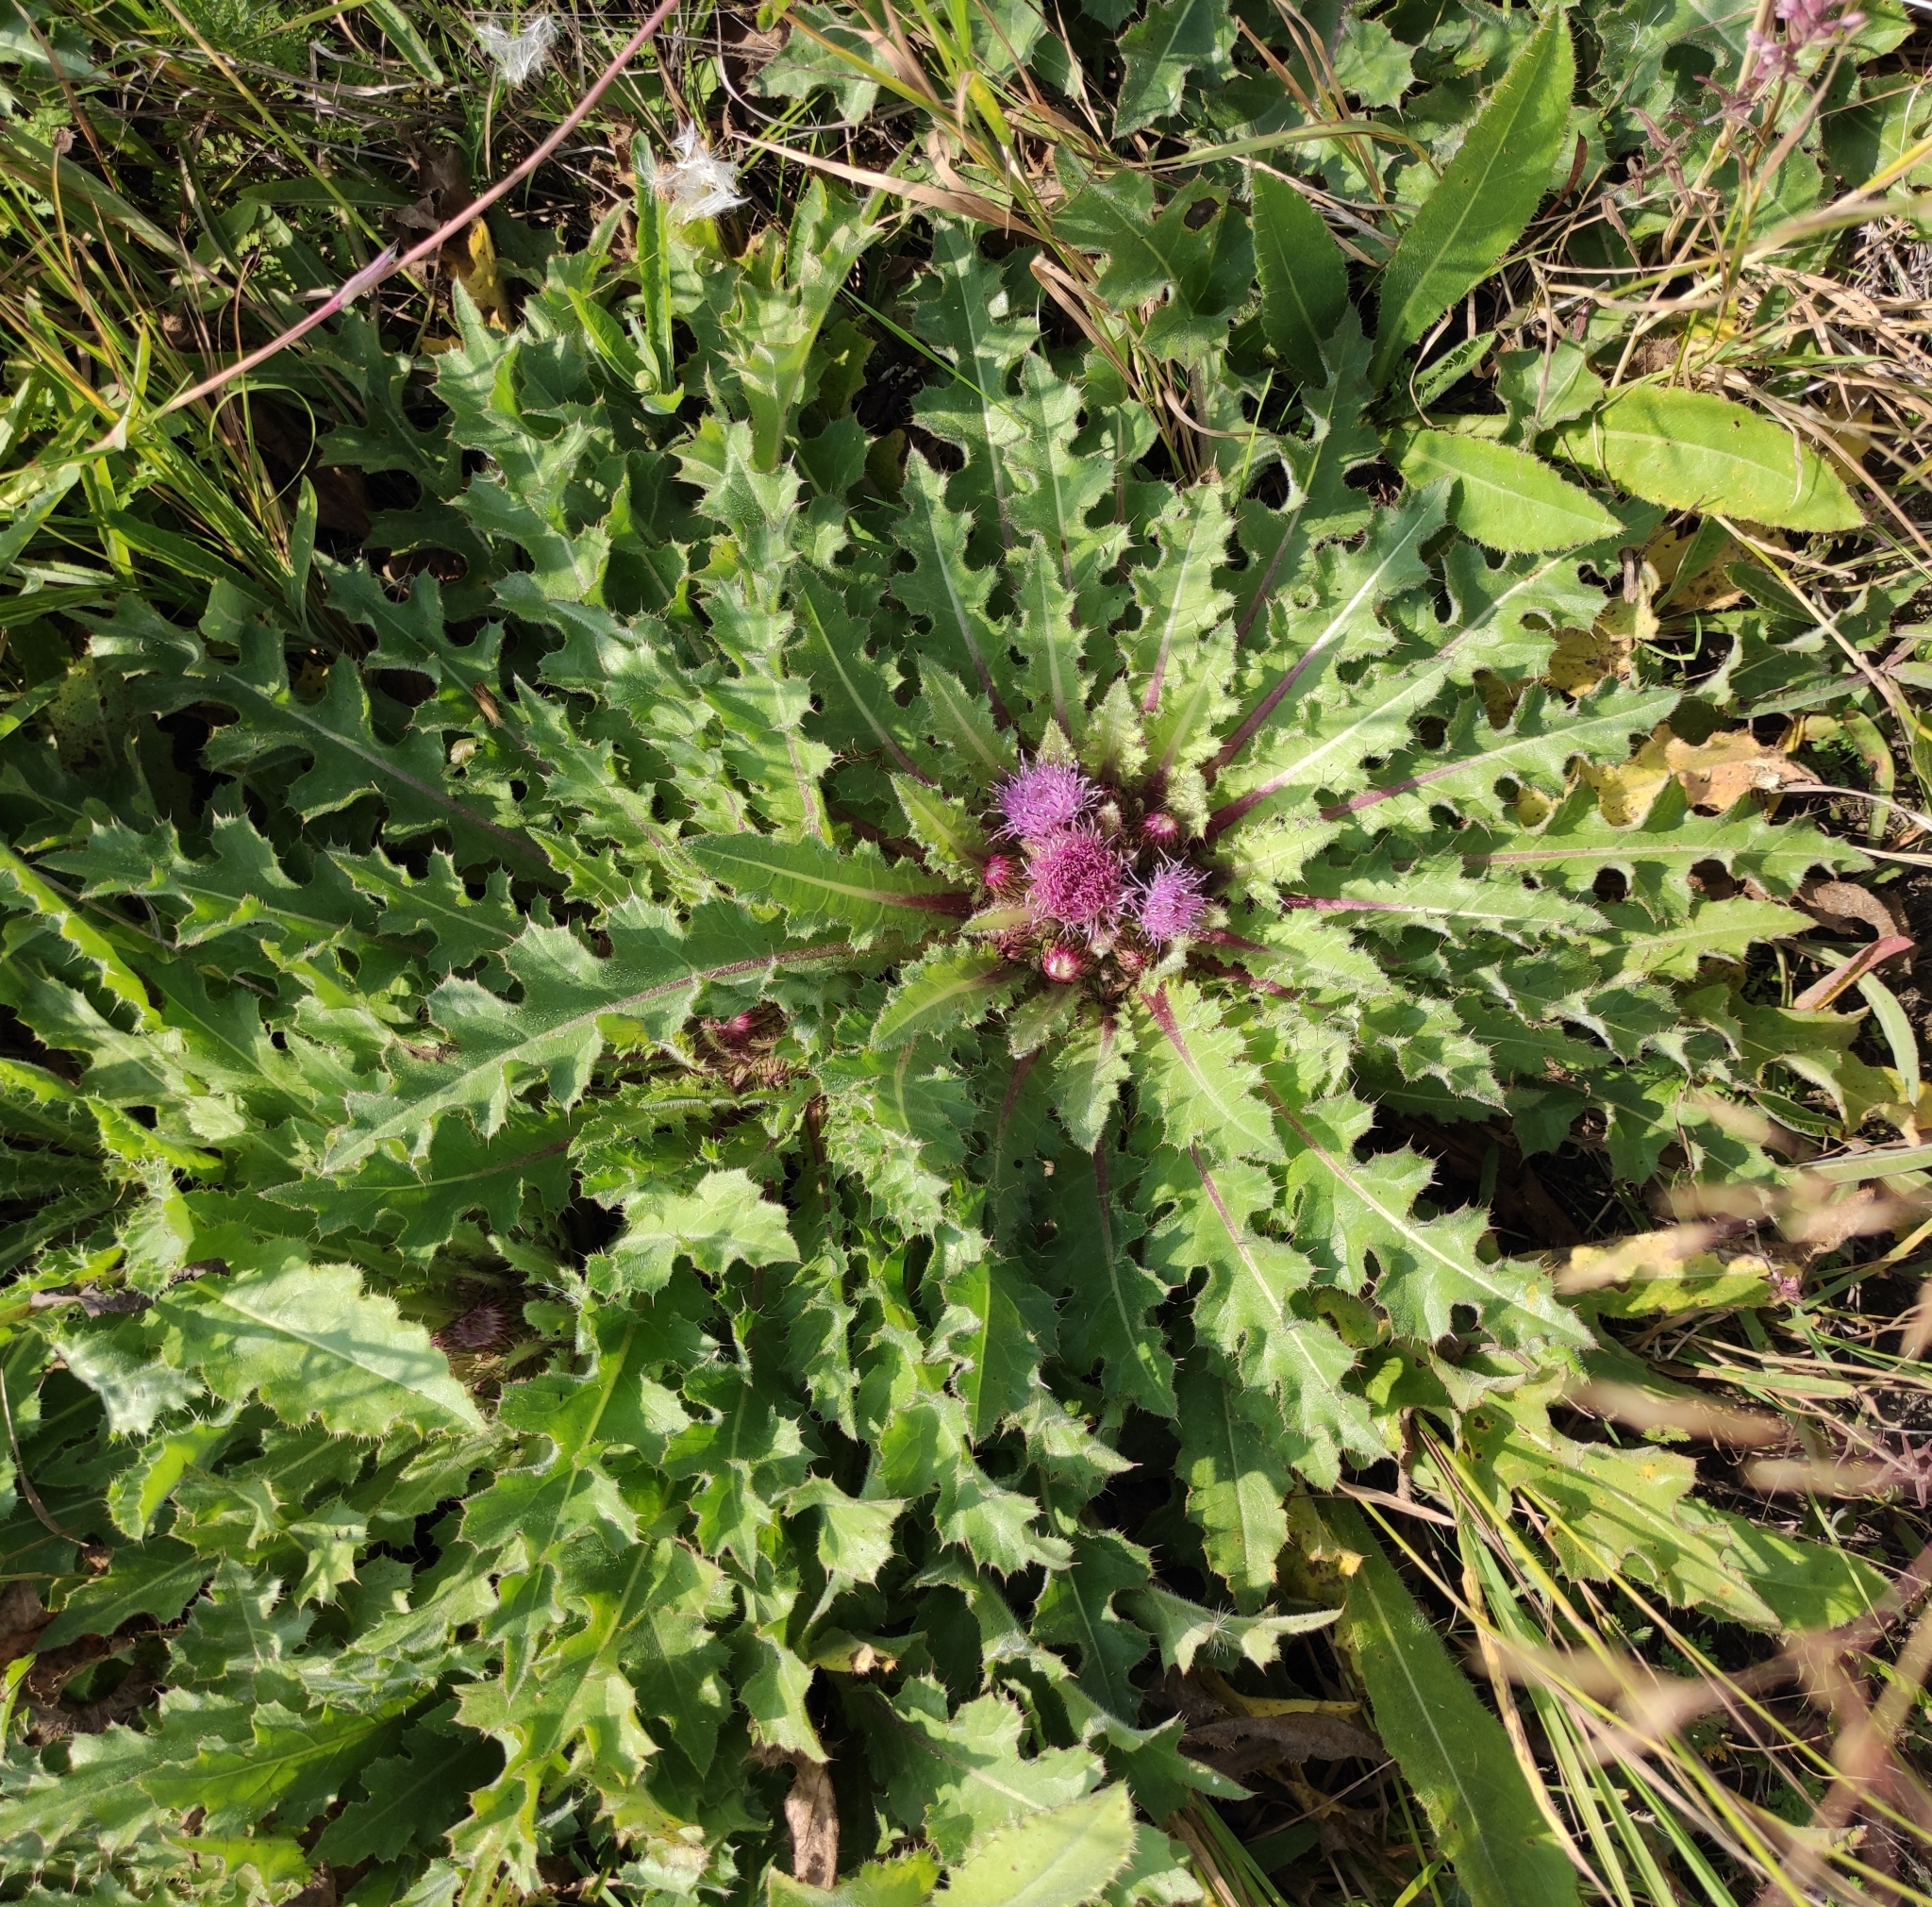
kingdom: Plantae
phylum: Tracheophyta
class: Magnoliopsida
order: Asterales
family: Asteraceae
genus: Cirsium
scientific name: Cirsium esculentum
